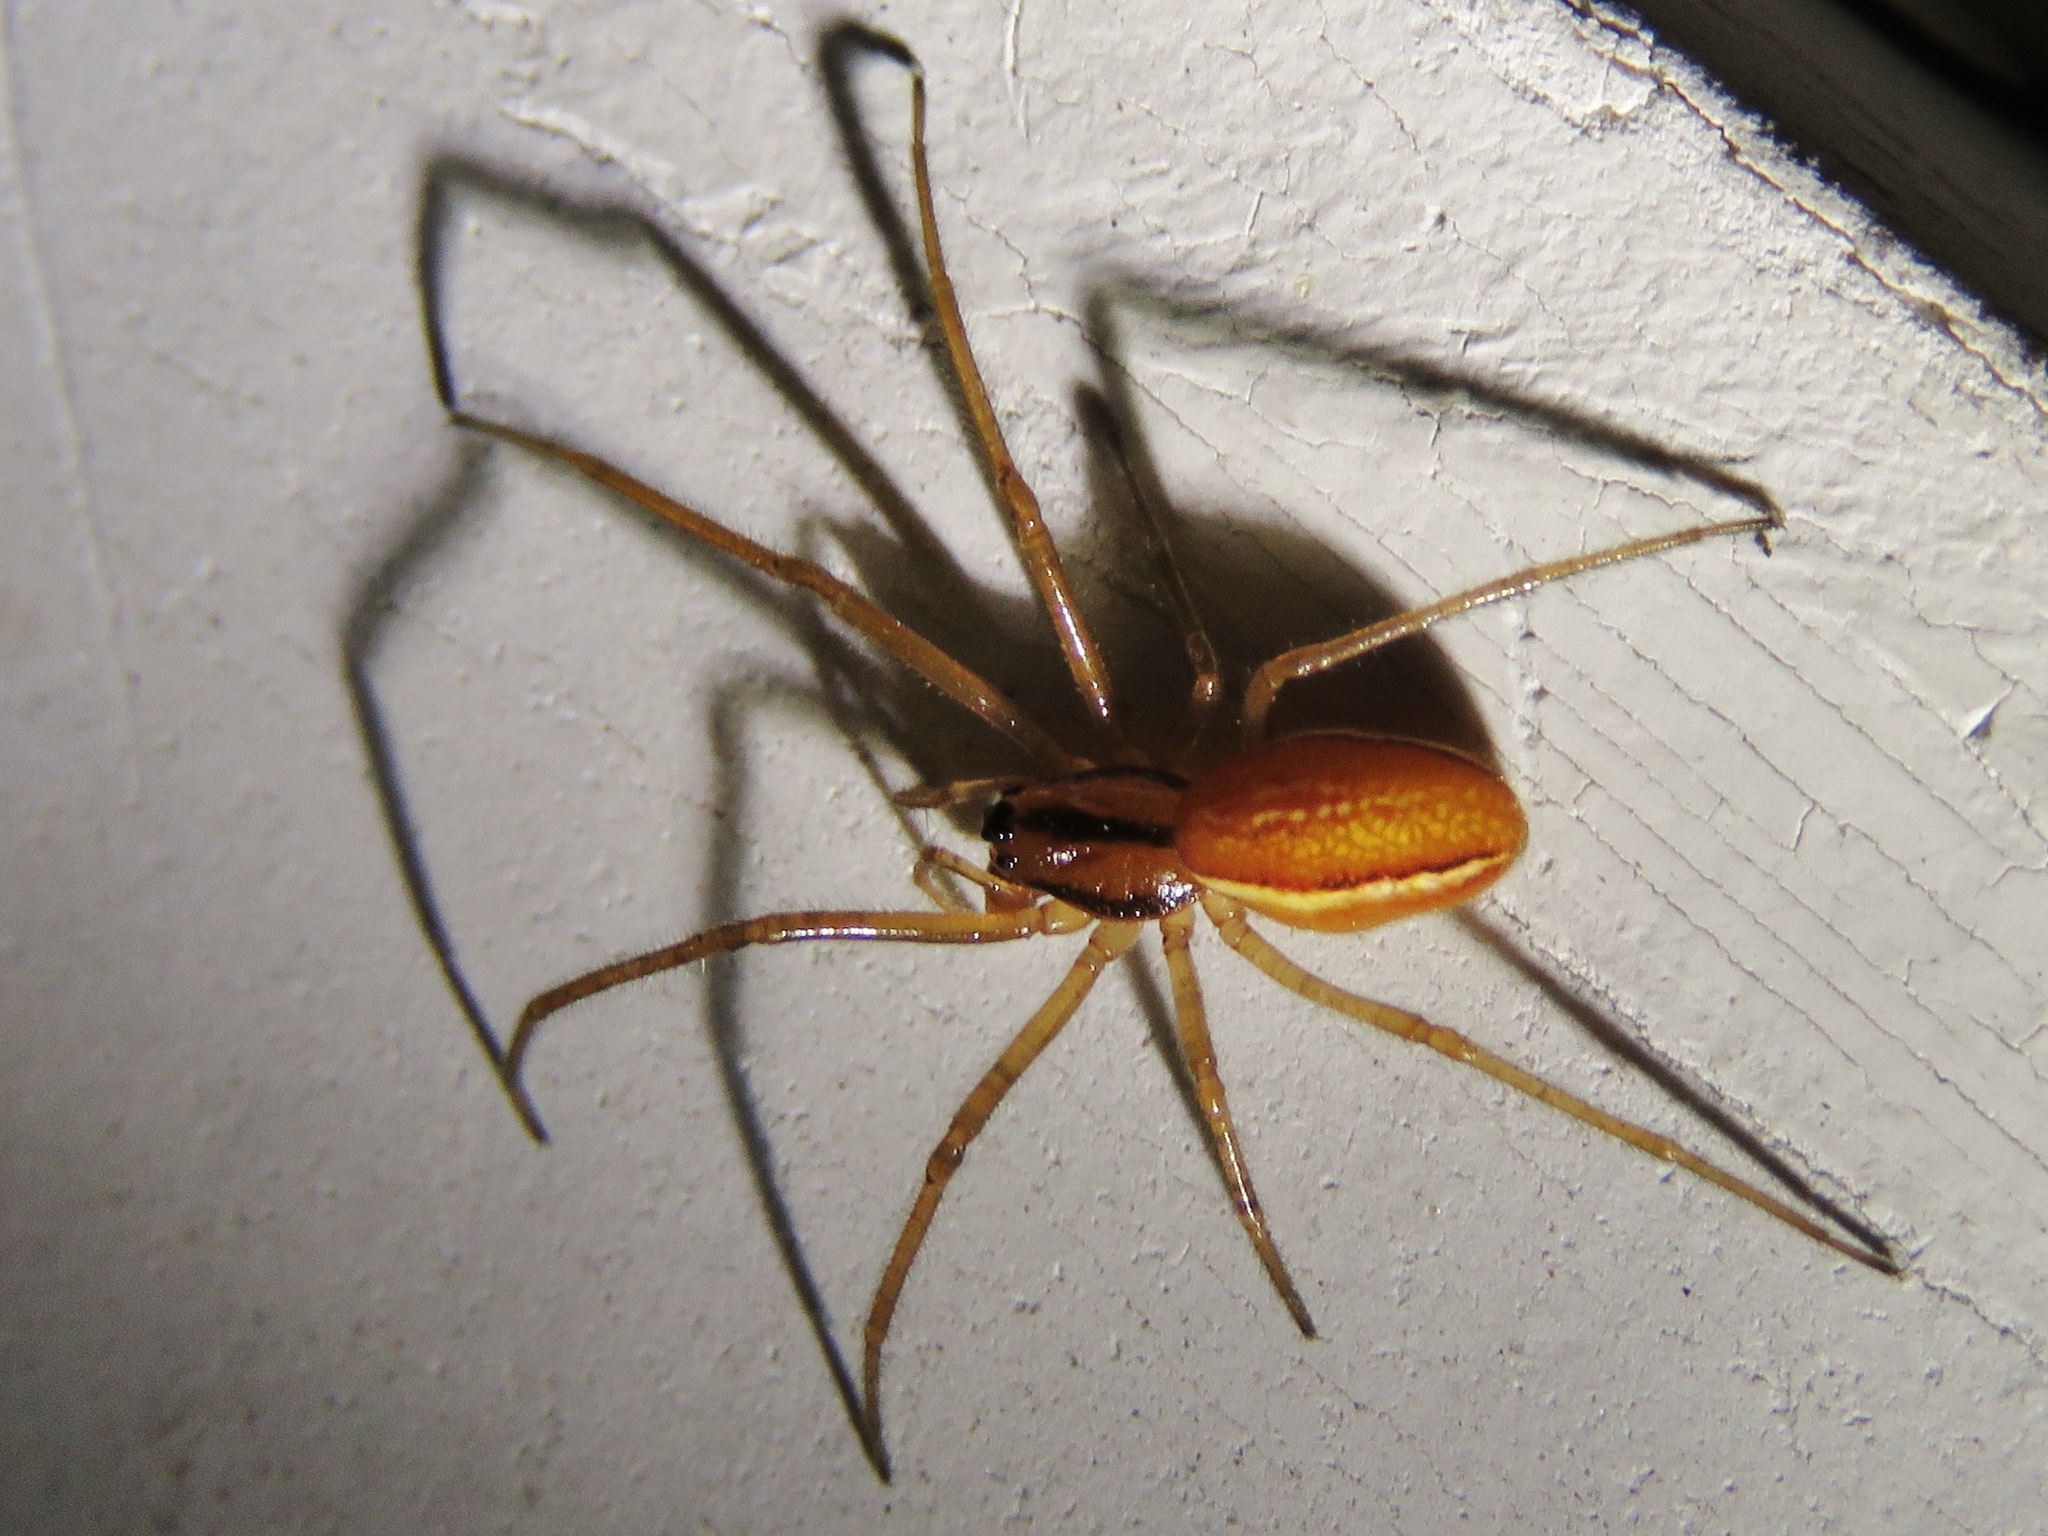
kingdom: Animalia
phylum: Arthropoda
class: Arachnida
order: Araneae
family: Tetragnathidae
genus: Pachygnatha
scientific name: Pachygnatha tristriata
